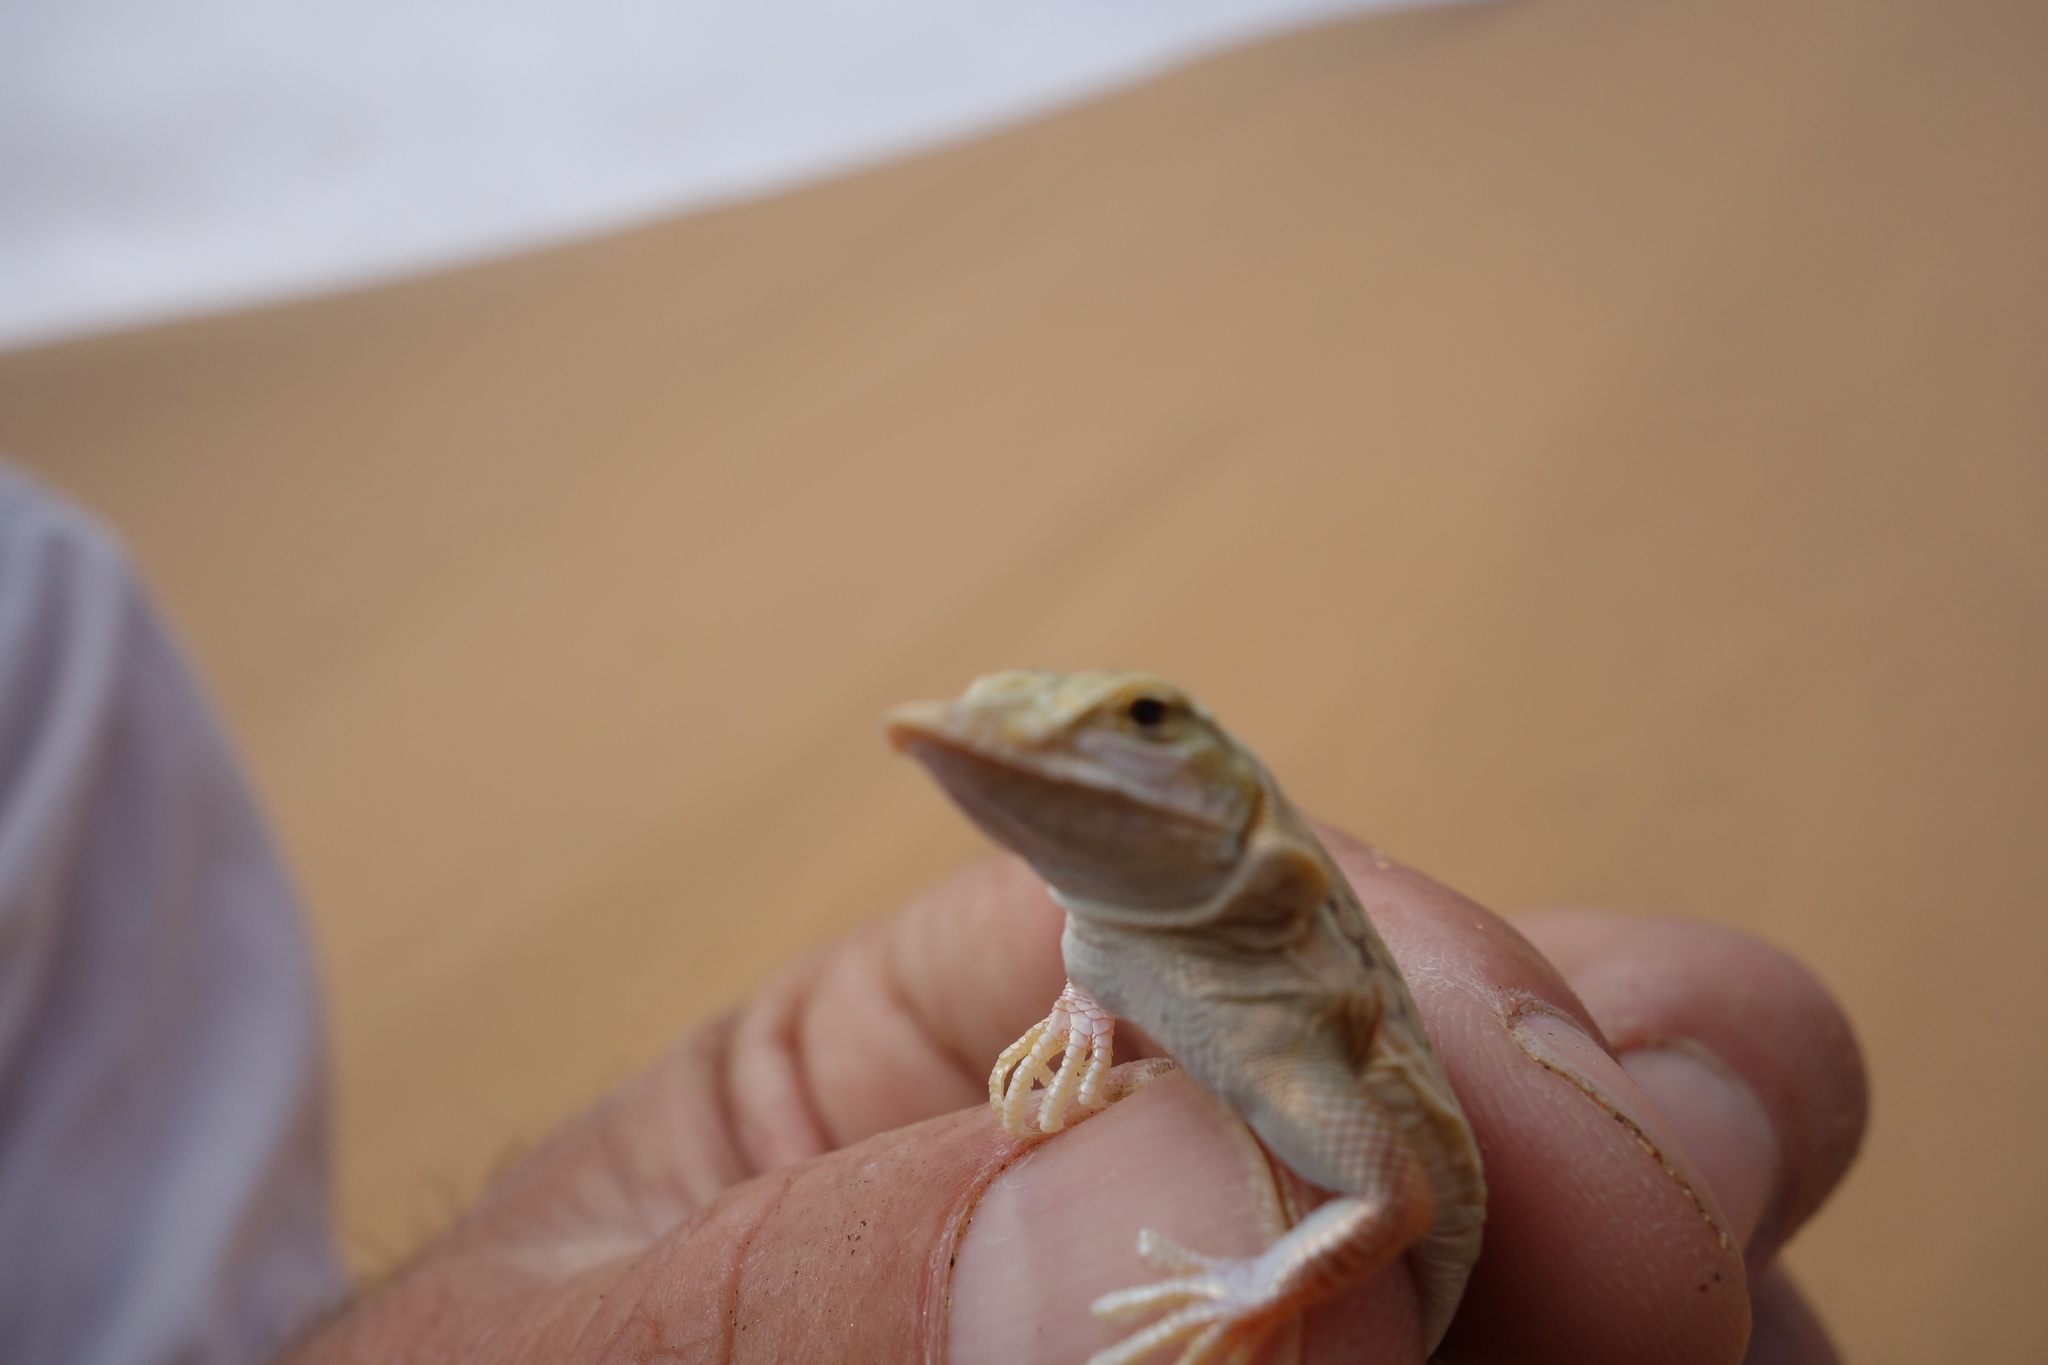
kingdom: Animalia
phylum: Chordata
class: Squamata
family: Lacertidae
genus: Meroles
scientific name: Meroles anchietae
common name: Anchieta’s dune or shovel-snouted lizard
